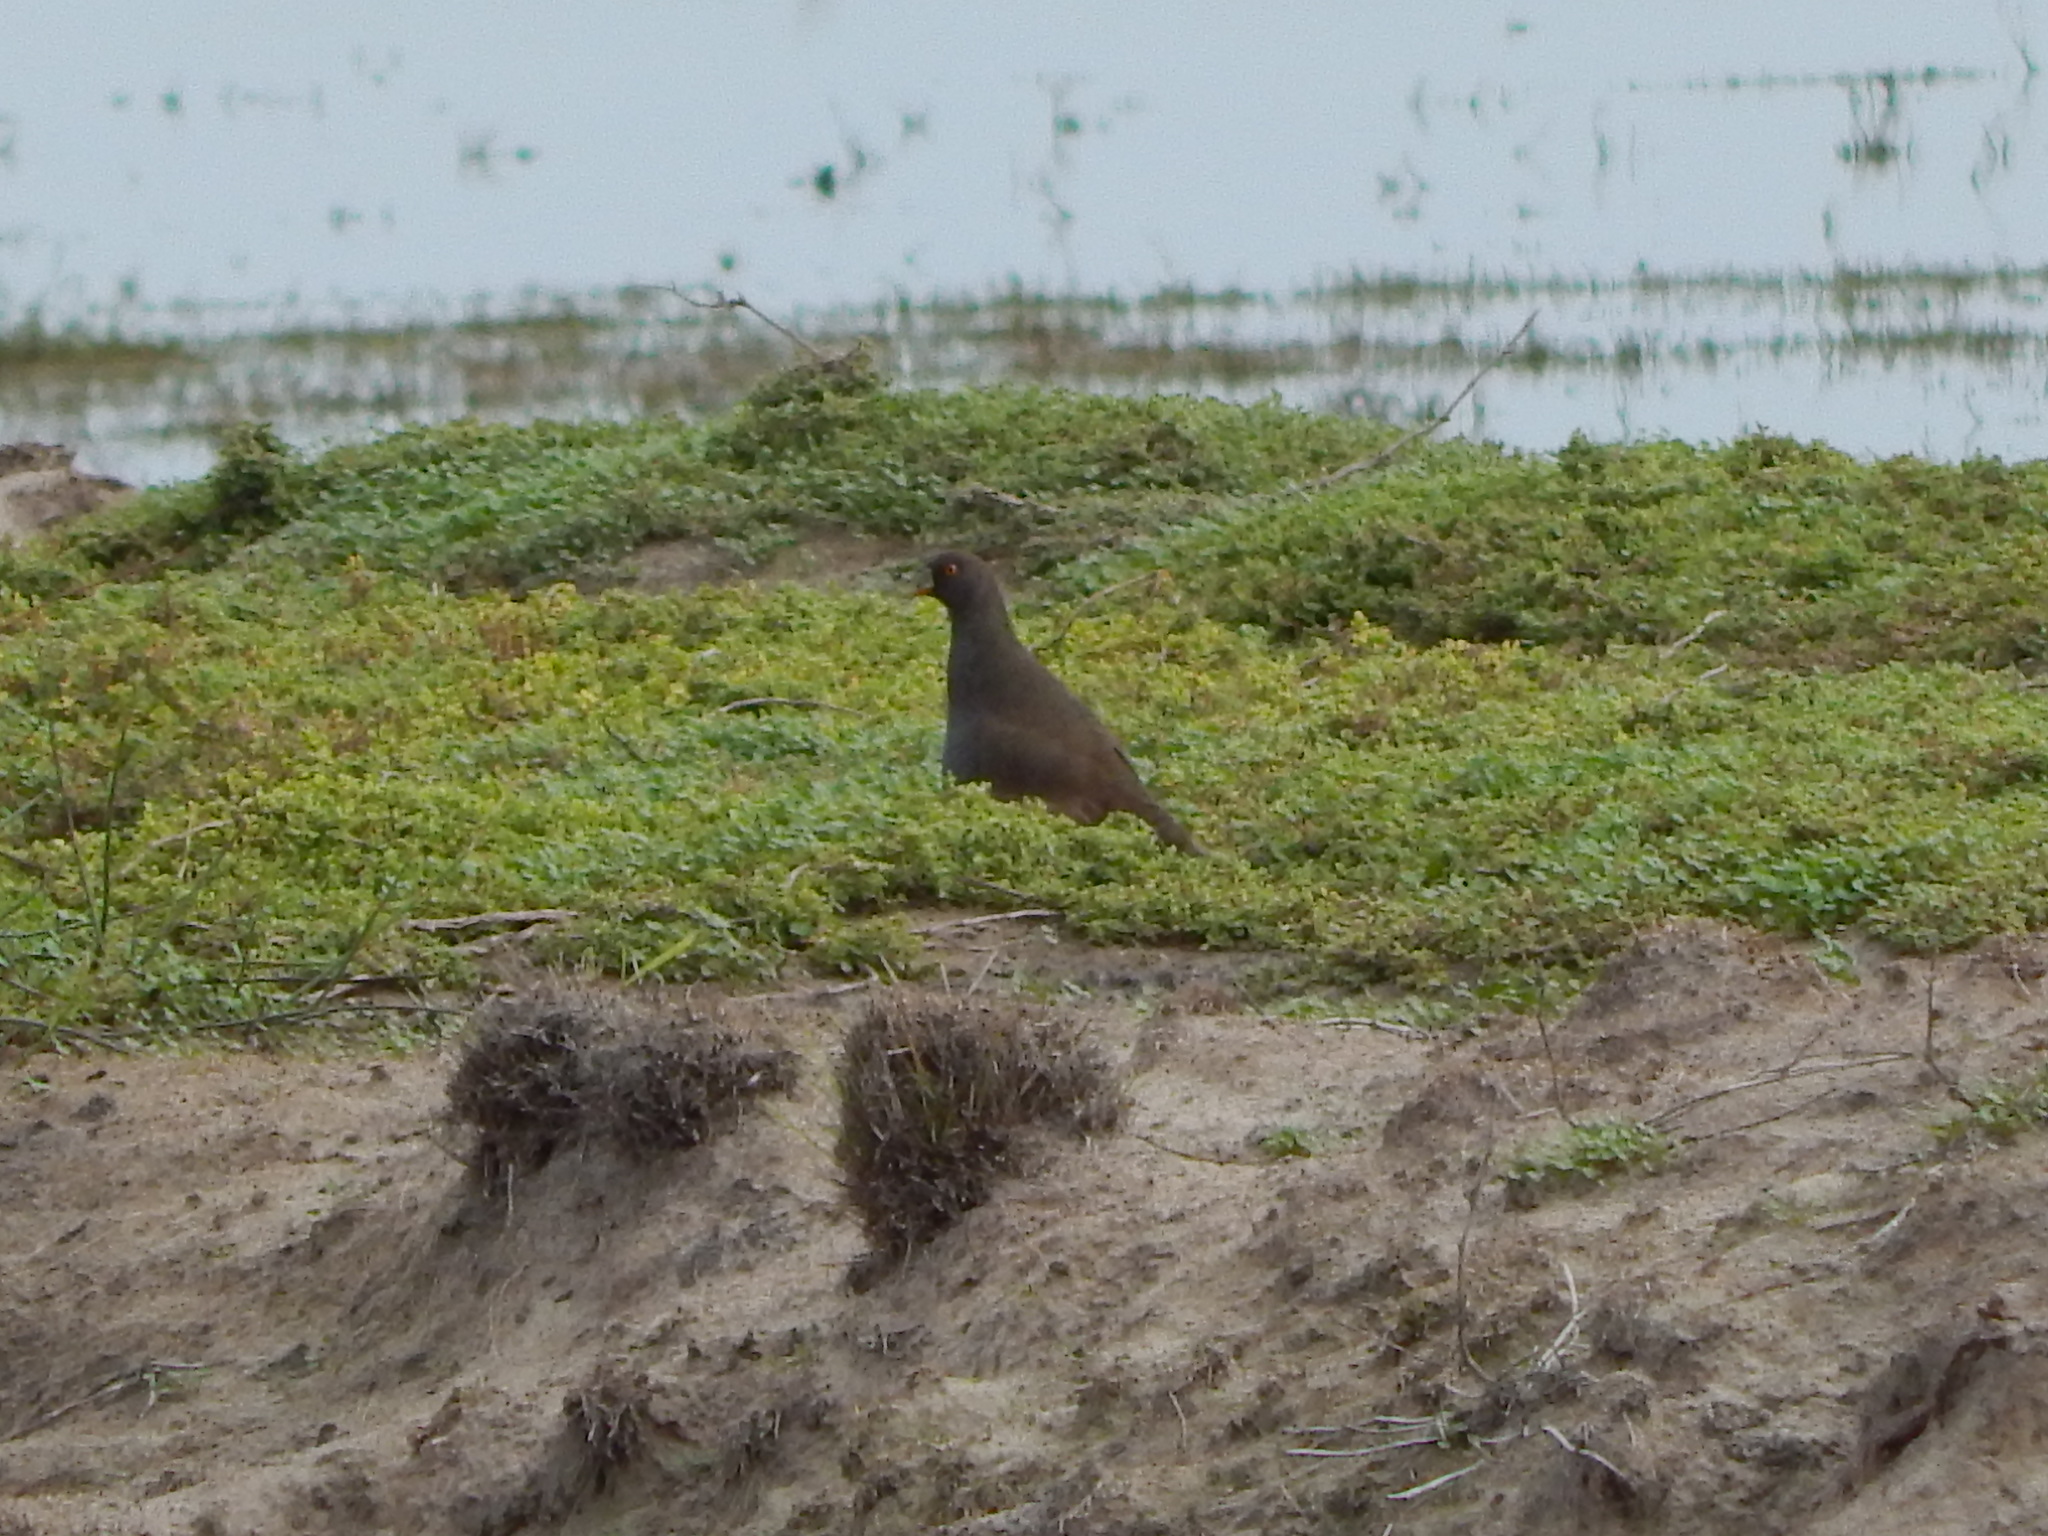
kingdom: Animalia
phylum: Chordata
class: Aves
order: Gruiformes
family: Rallidae
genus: Gallinula
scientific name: Gallinula ventralis
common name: Black-tailed nativehen
